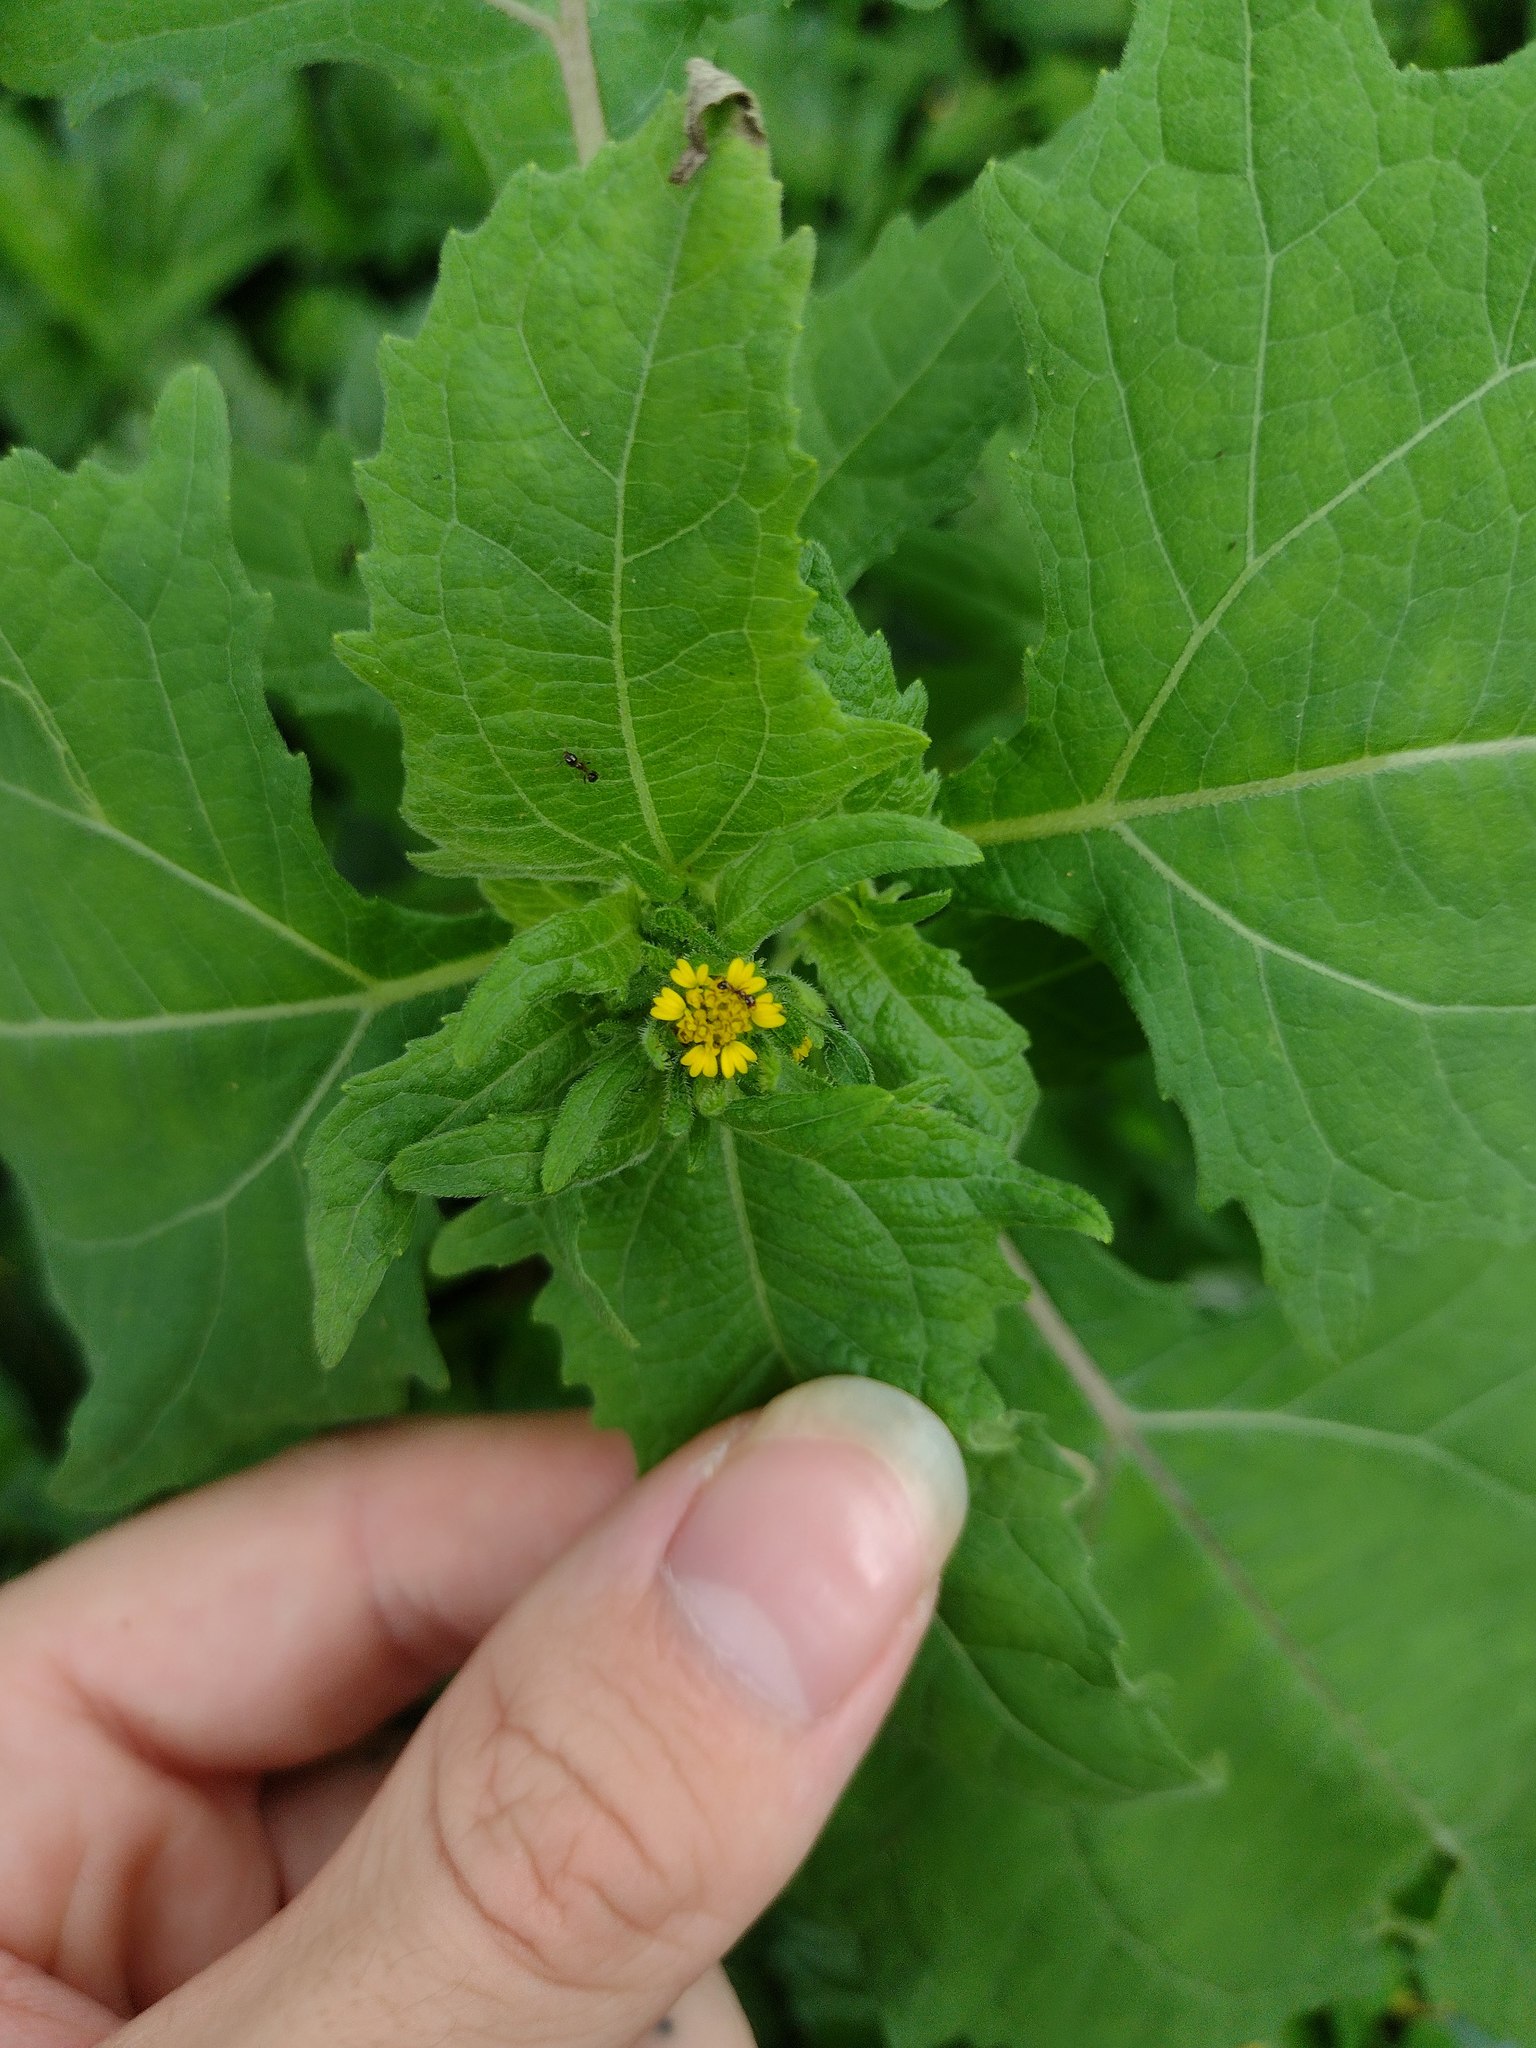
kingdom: Plantae
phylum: Tracheophyta
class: Magnoliopsida
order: Asterales
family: Asteraceae
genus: Sigesbeckia
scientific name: Sigesbeckia orientalis
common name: Eastern st paul's-wort
